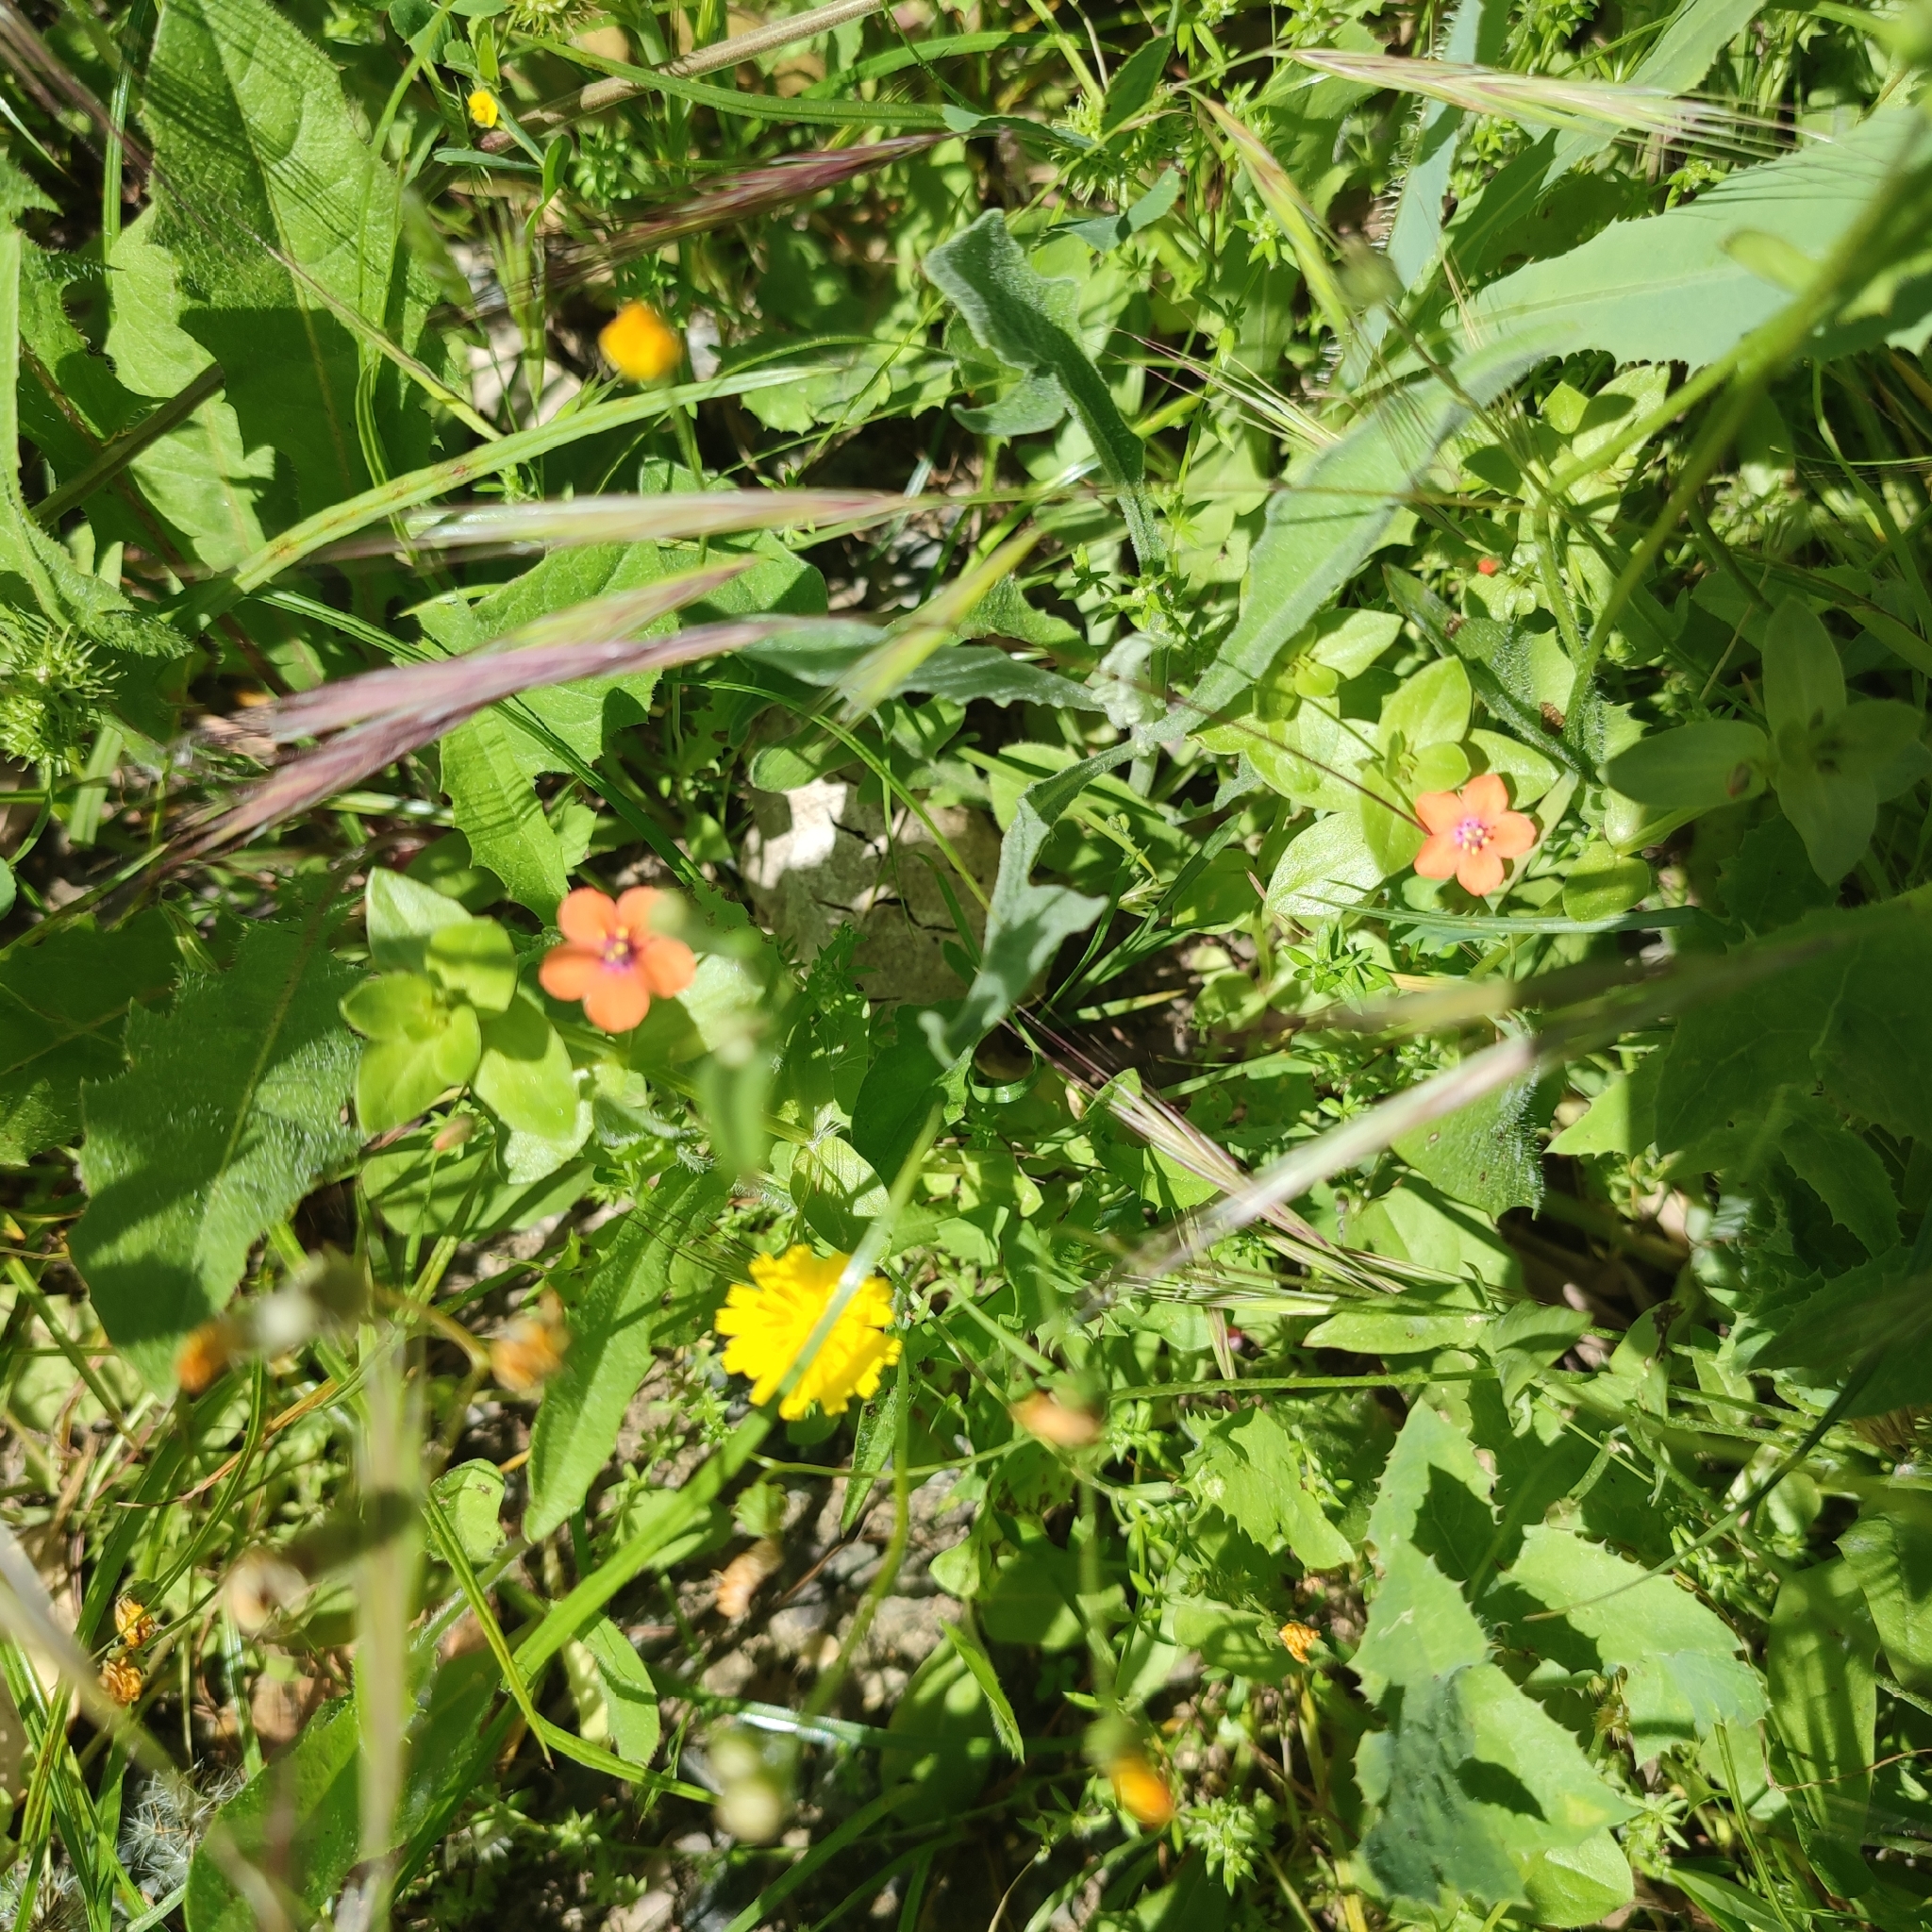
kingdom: Plantae
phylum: Tracheophyta
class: Magnoliopsida
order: Ericales
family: Primulaceae
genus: Lysimachia
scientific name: Lysimachia arvensis
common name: Scarlet pimpernel
